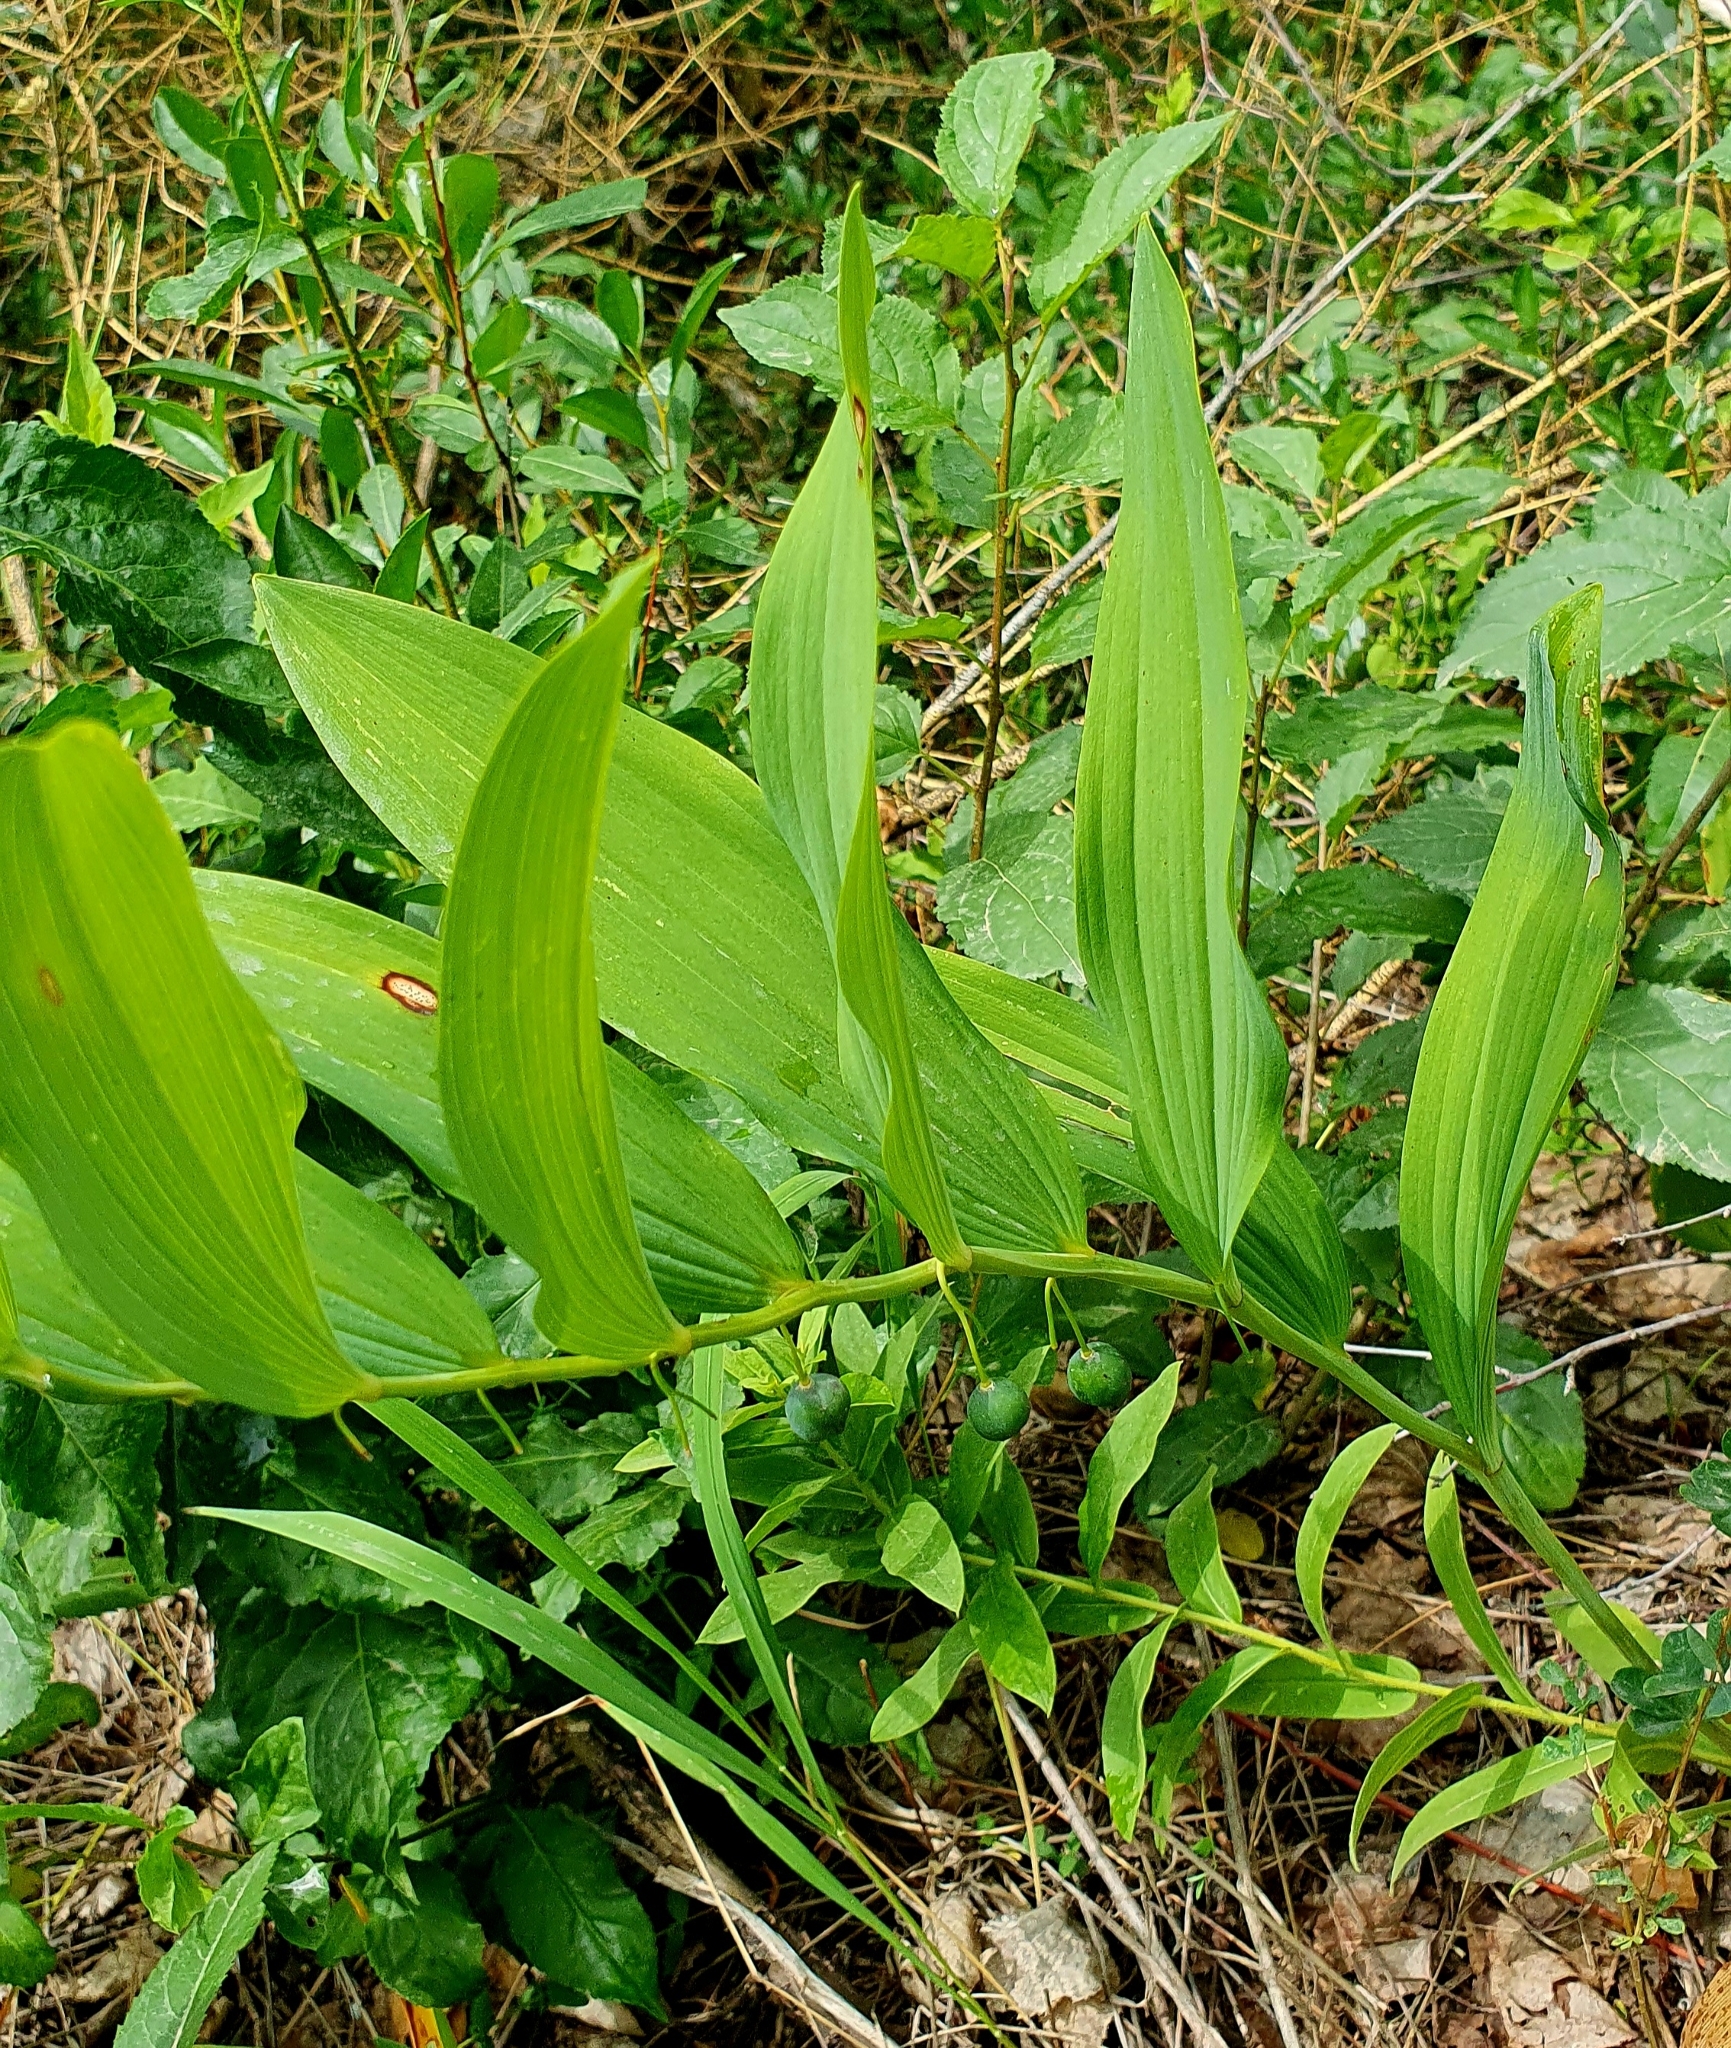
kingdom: Plantae
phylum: Tracheophyta
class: Liliopsida
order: Asparagales
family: Asparagaceae
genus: Polygonatum
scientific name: Polygonatum odoratum
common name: Angular solomon's-seal
